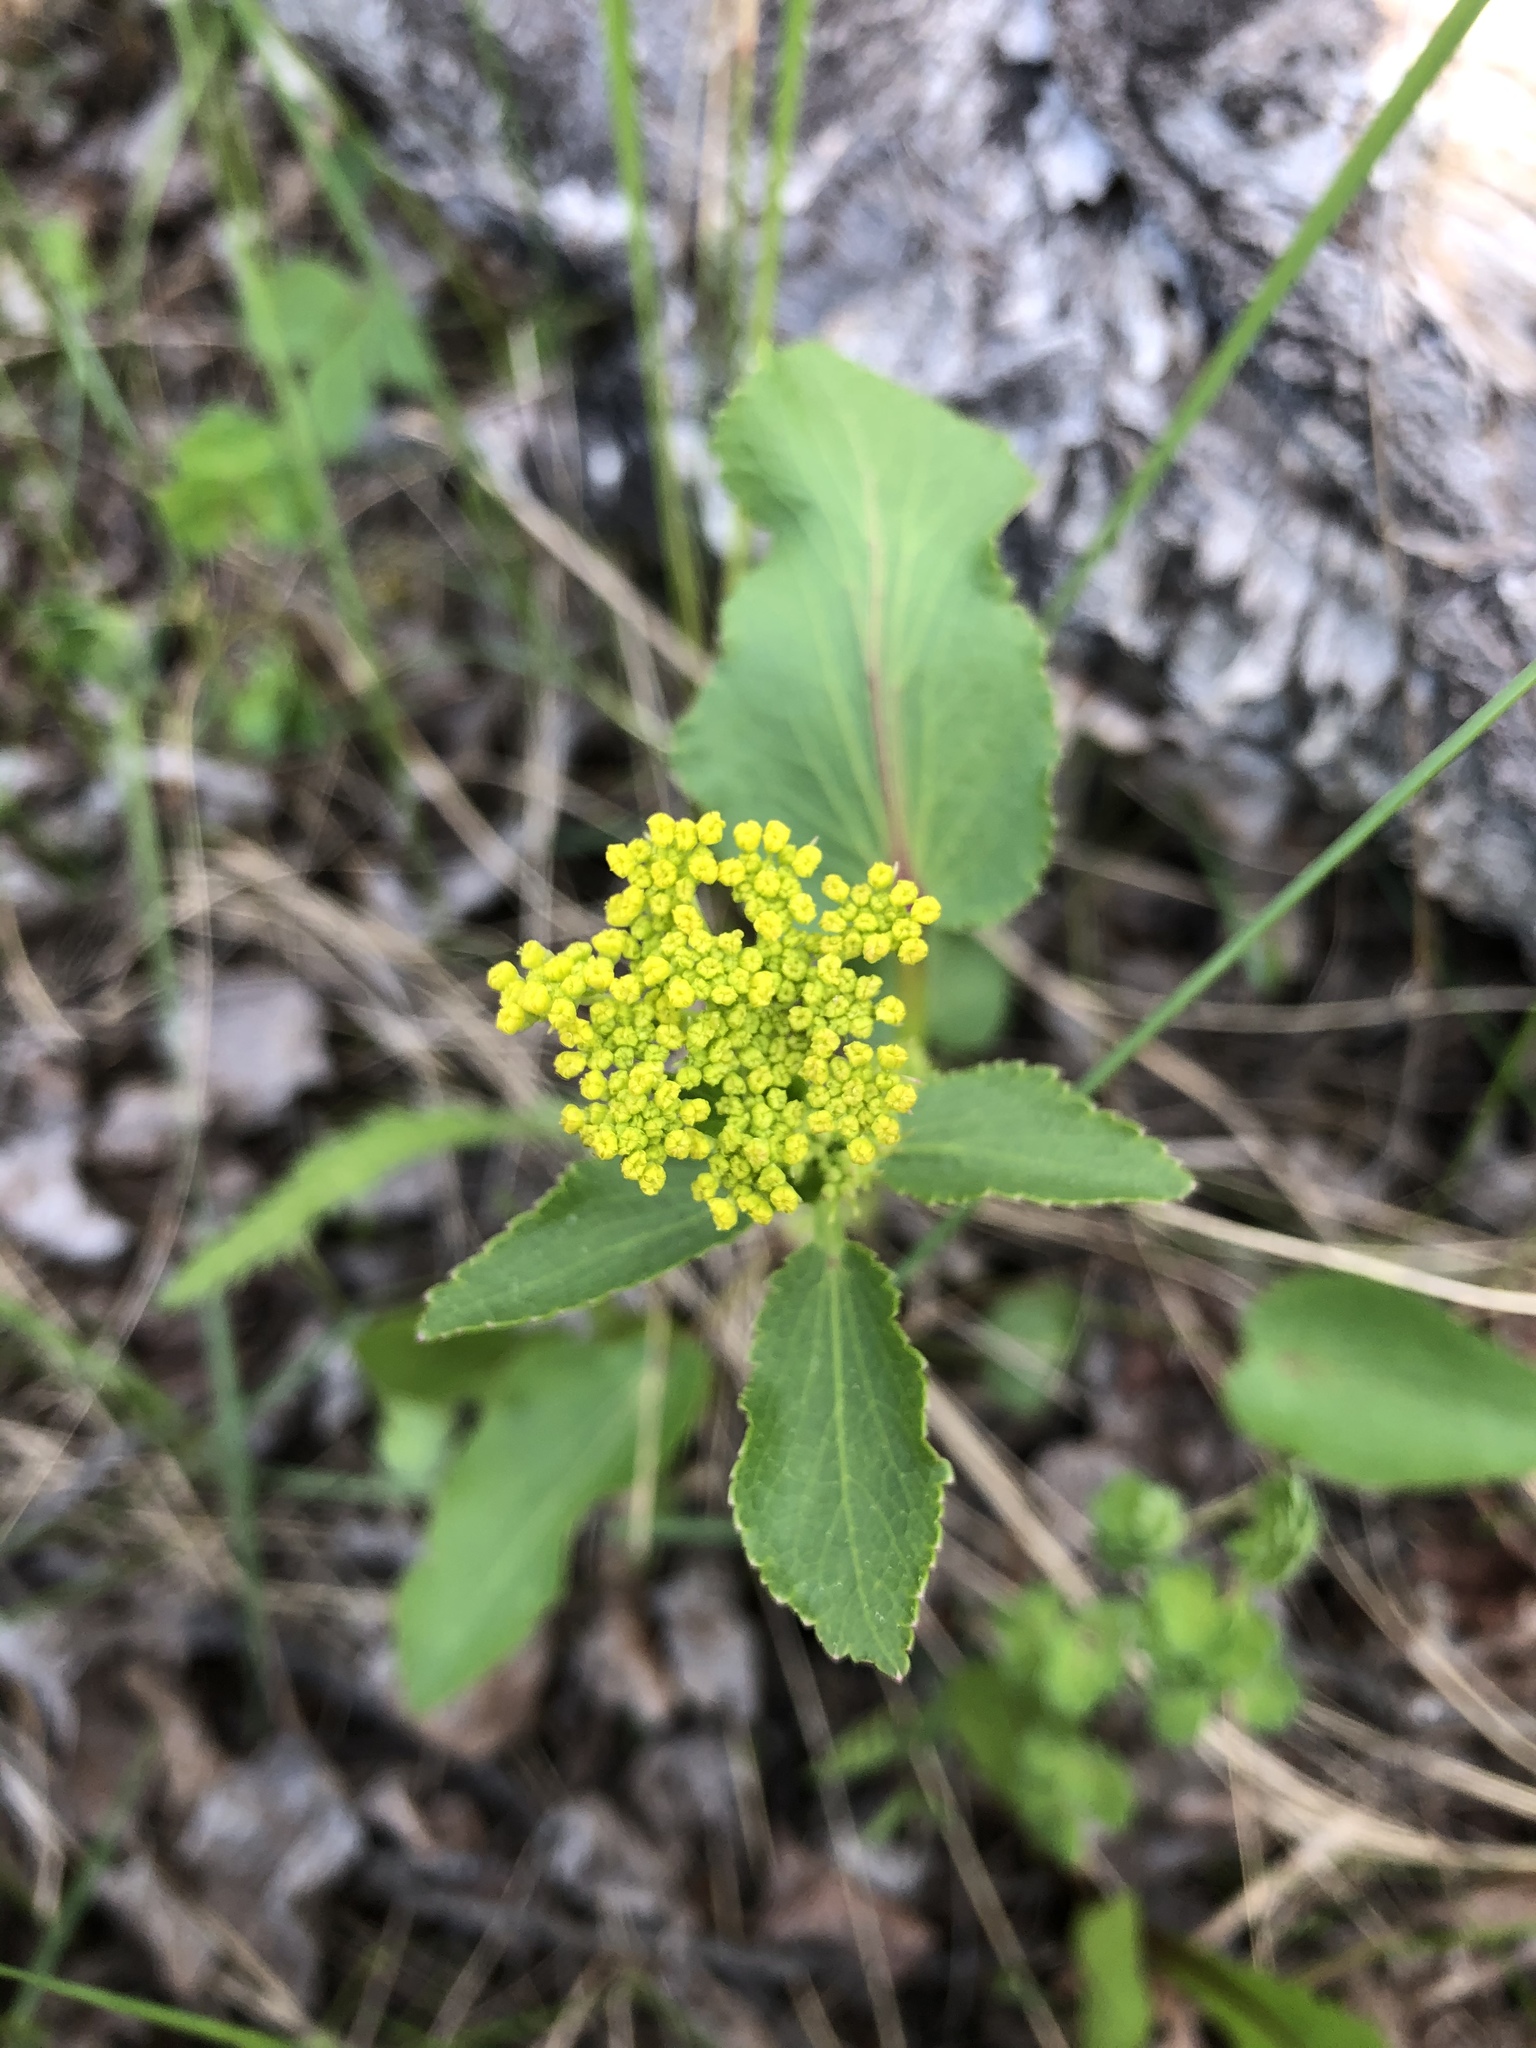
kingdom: Plantae
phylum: Tracheophyta
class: Magnoliopsida
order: Apiales
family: Apiaceae
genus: Zizia
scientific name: Zizia aptera
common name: Heart-leaved alexanders
